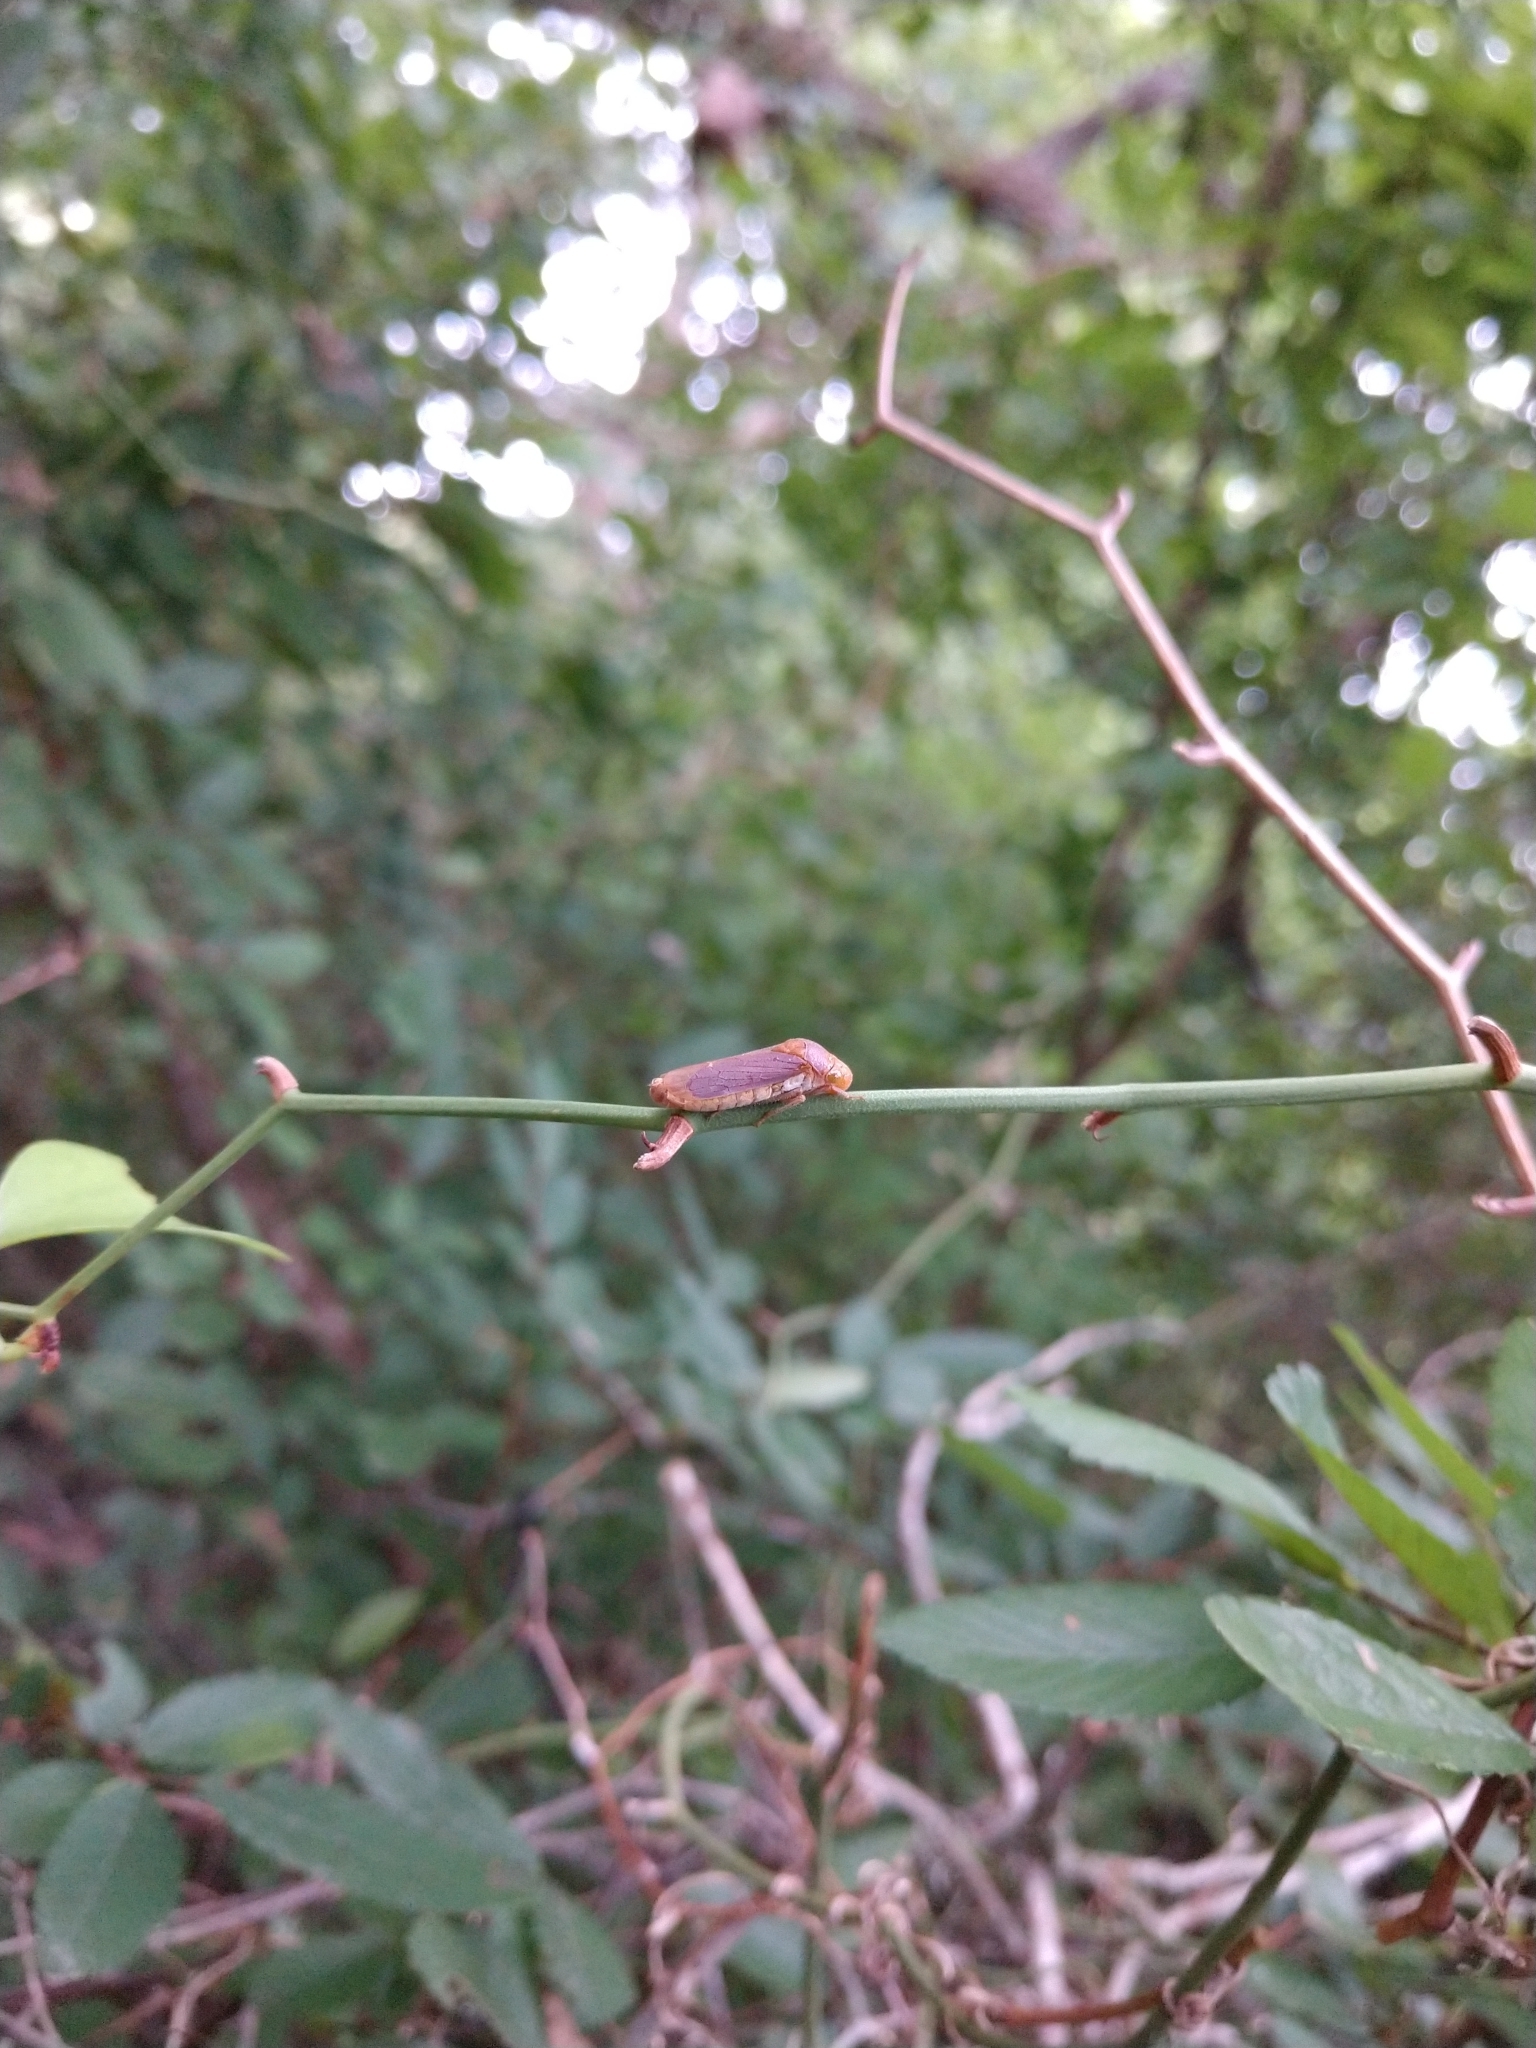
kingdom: Animalia
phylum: Arthropoda
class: Insecta
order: Hemiptera
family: Cicadellidae
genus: Oncometopia
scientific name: Oncometopia hamiltoni
